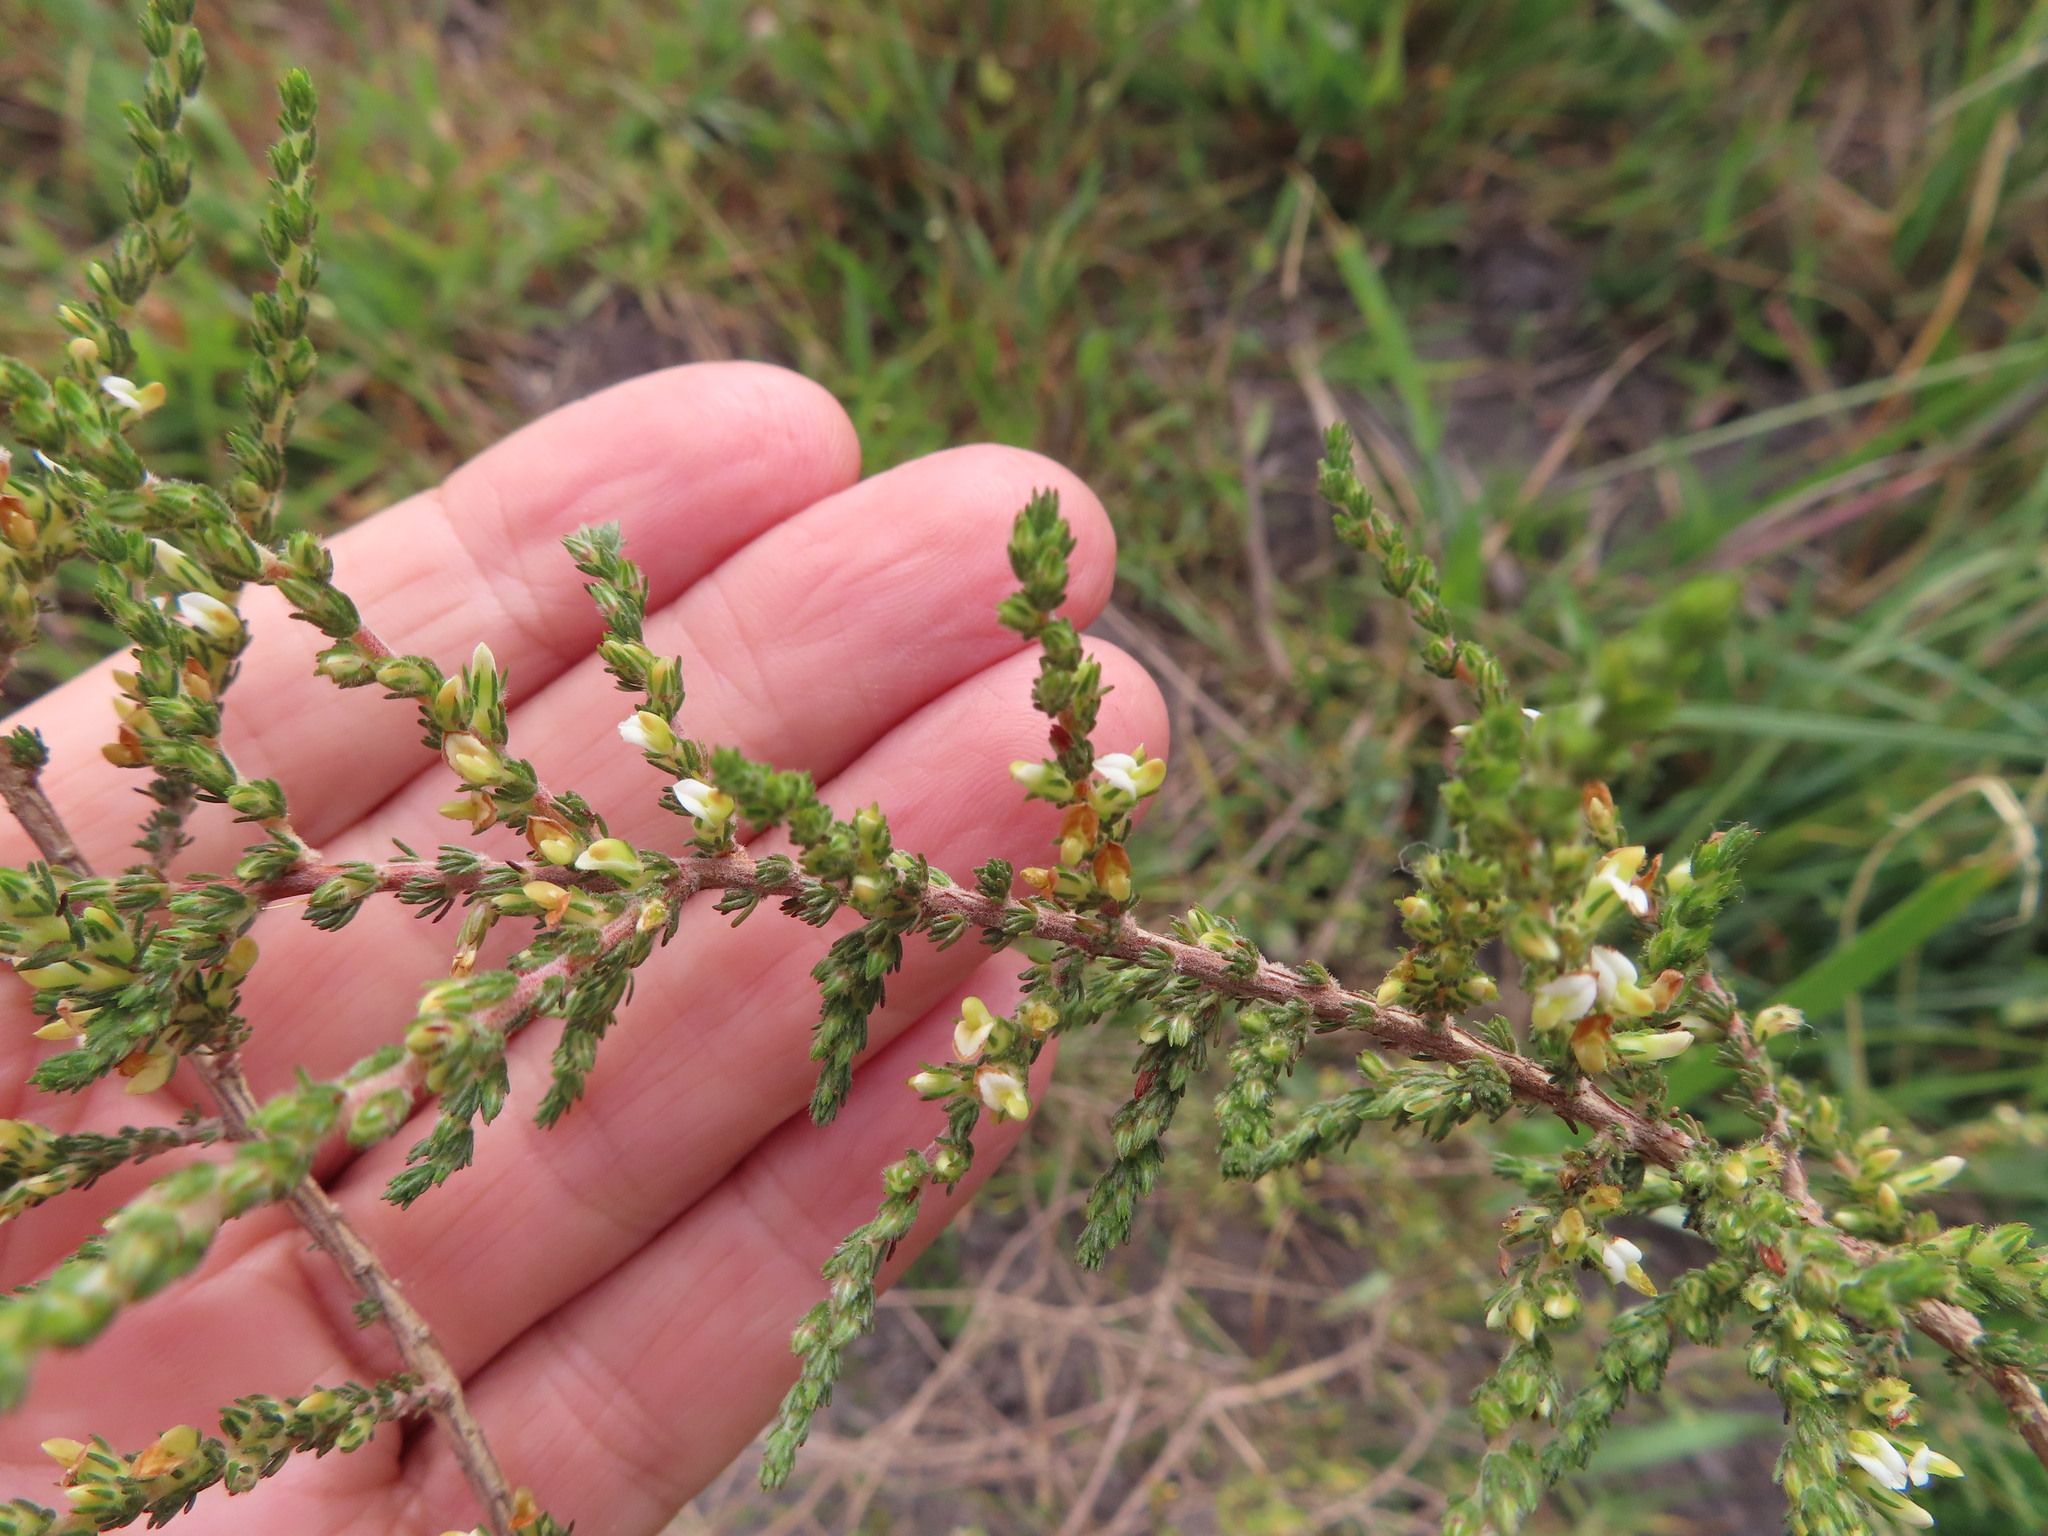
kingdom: Plantae
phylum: Tracheophyta
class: Magnoliopsida
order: Fabales
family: Fabaceae
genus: Aspalathus
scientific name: Aspalathus hispida
